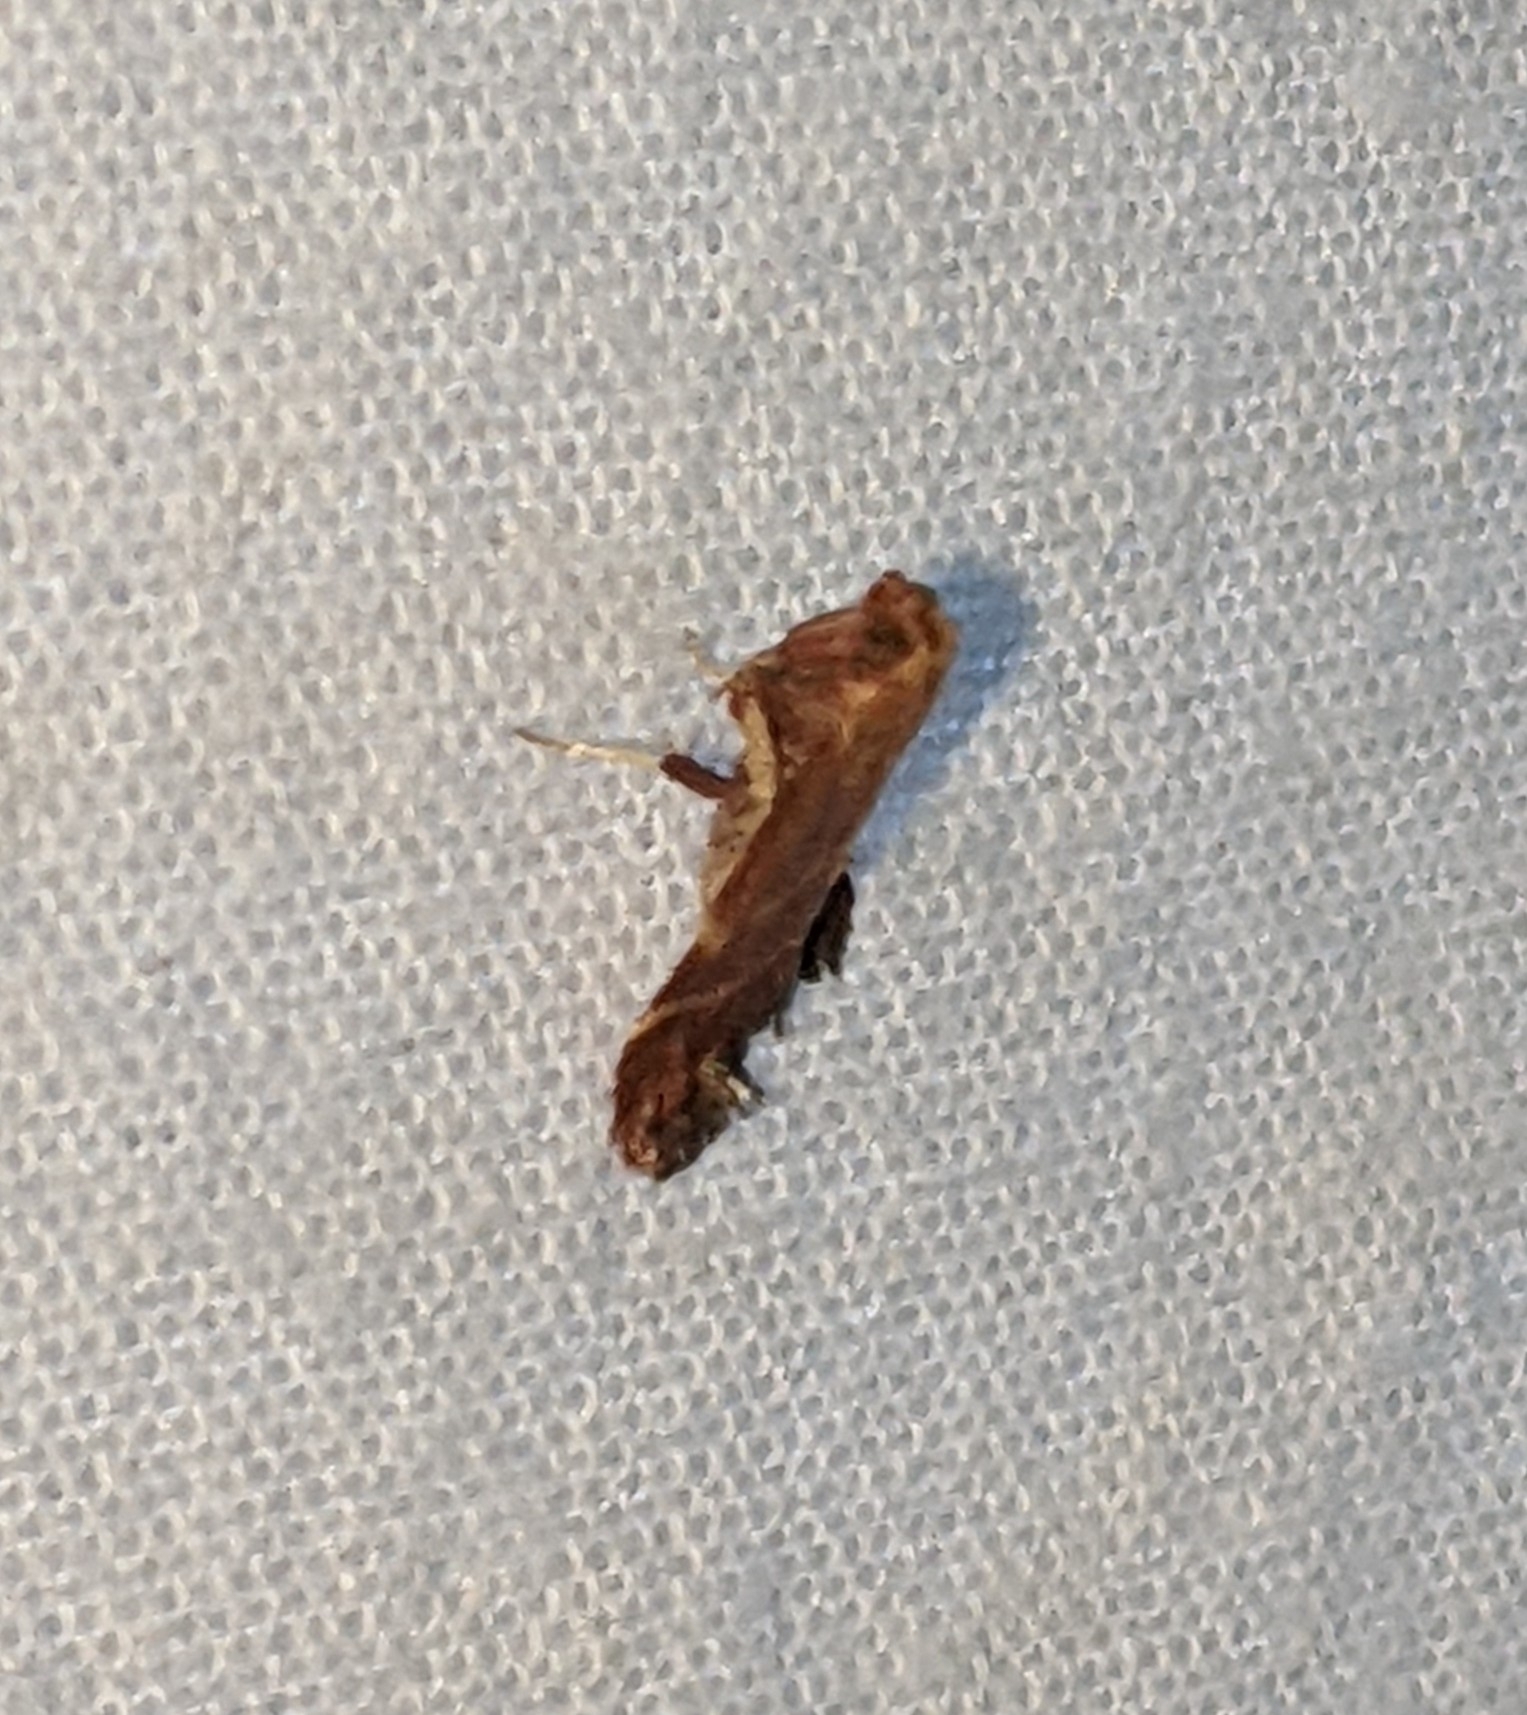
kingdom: Animalia
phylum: Arthropoda
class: Insecta
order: Lepidoptera
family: Pyralidae
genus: Arta
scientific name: Arta epicoenalis
